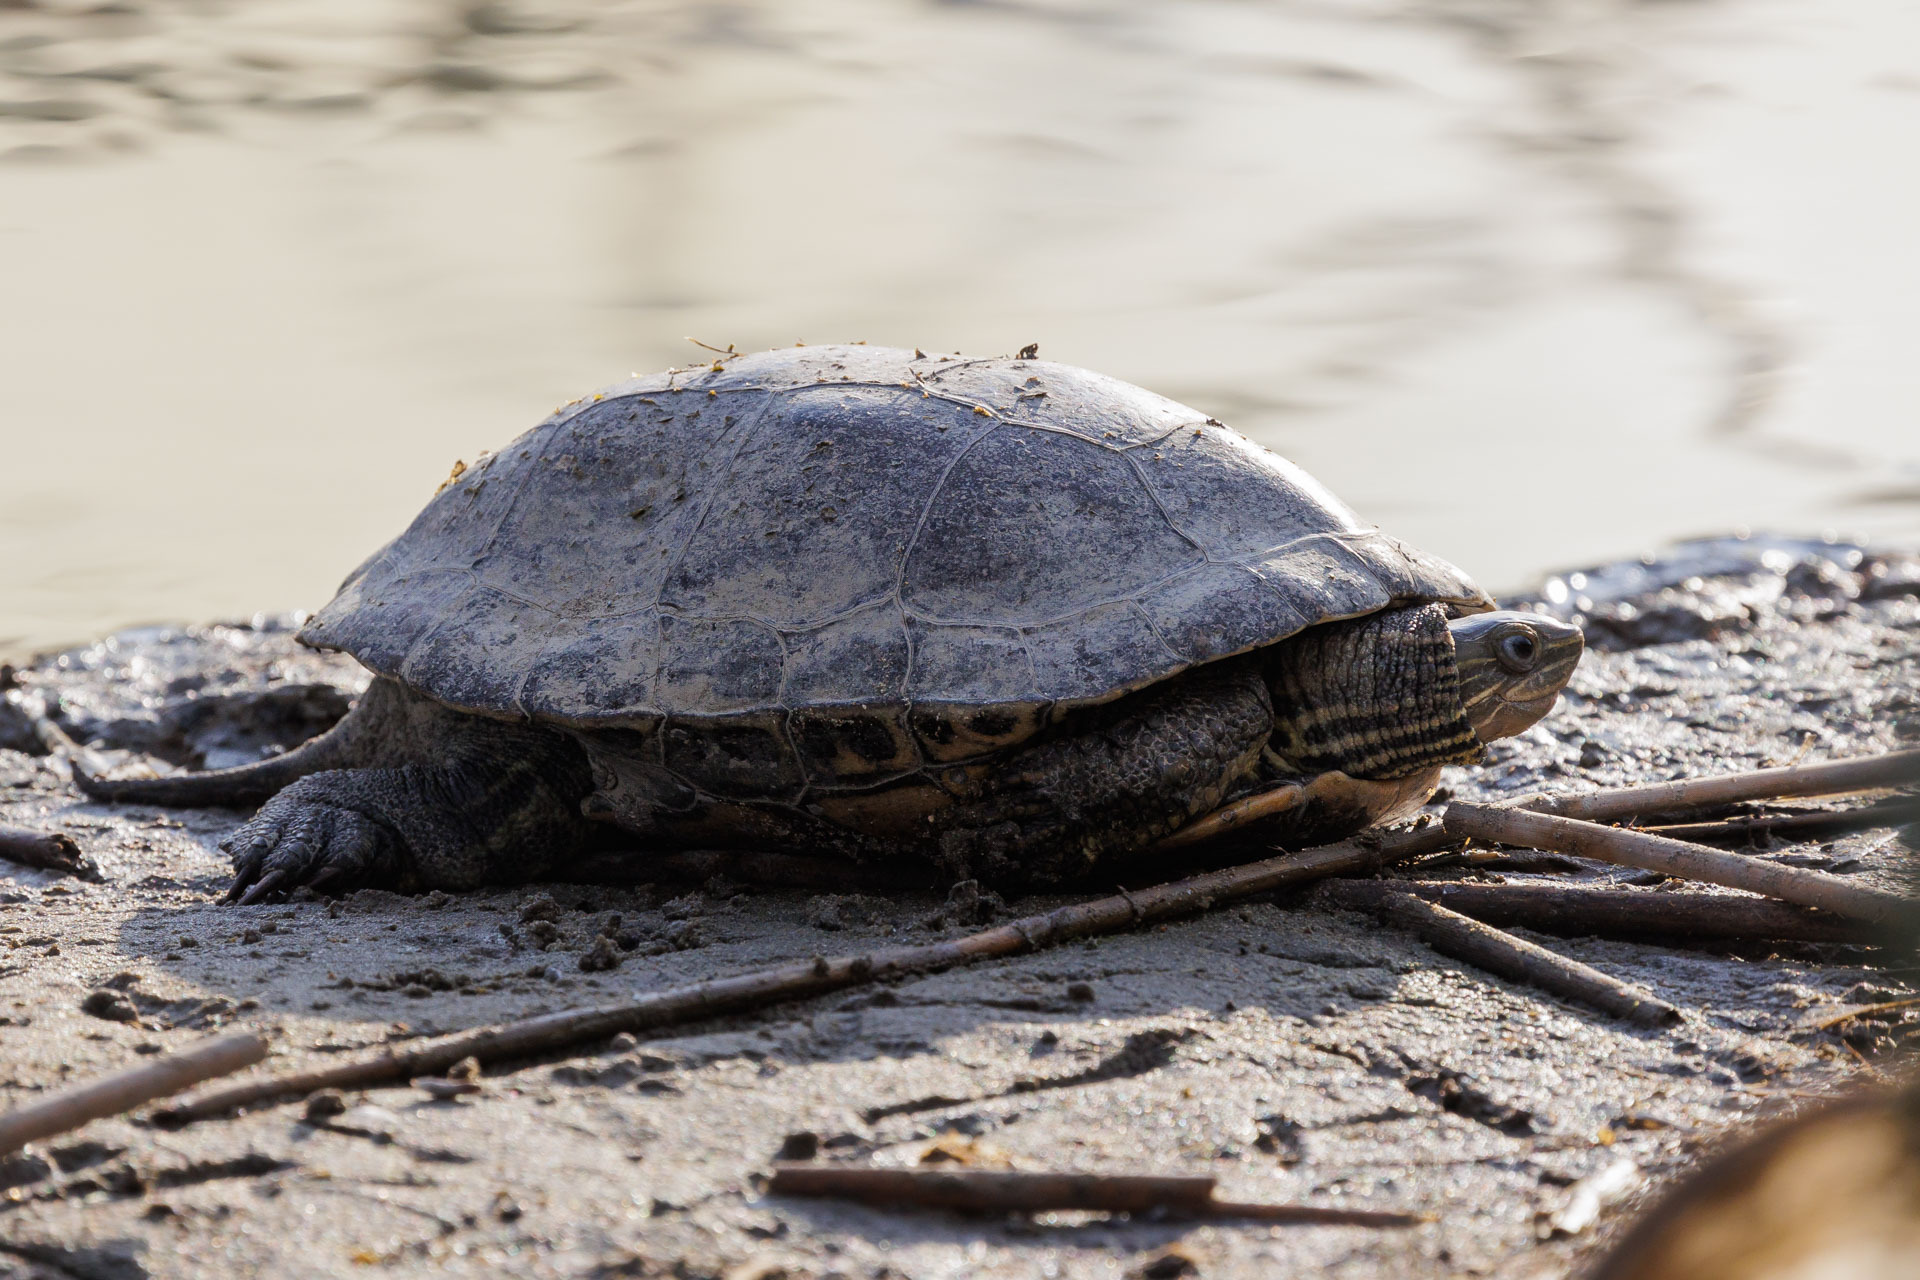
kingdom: Animalia
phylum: Chordata
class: Testudines
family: Geoemydidae
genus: Mauremys
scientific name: Mauremys caspica
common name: Caspian turtle
